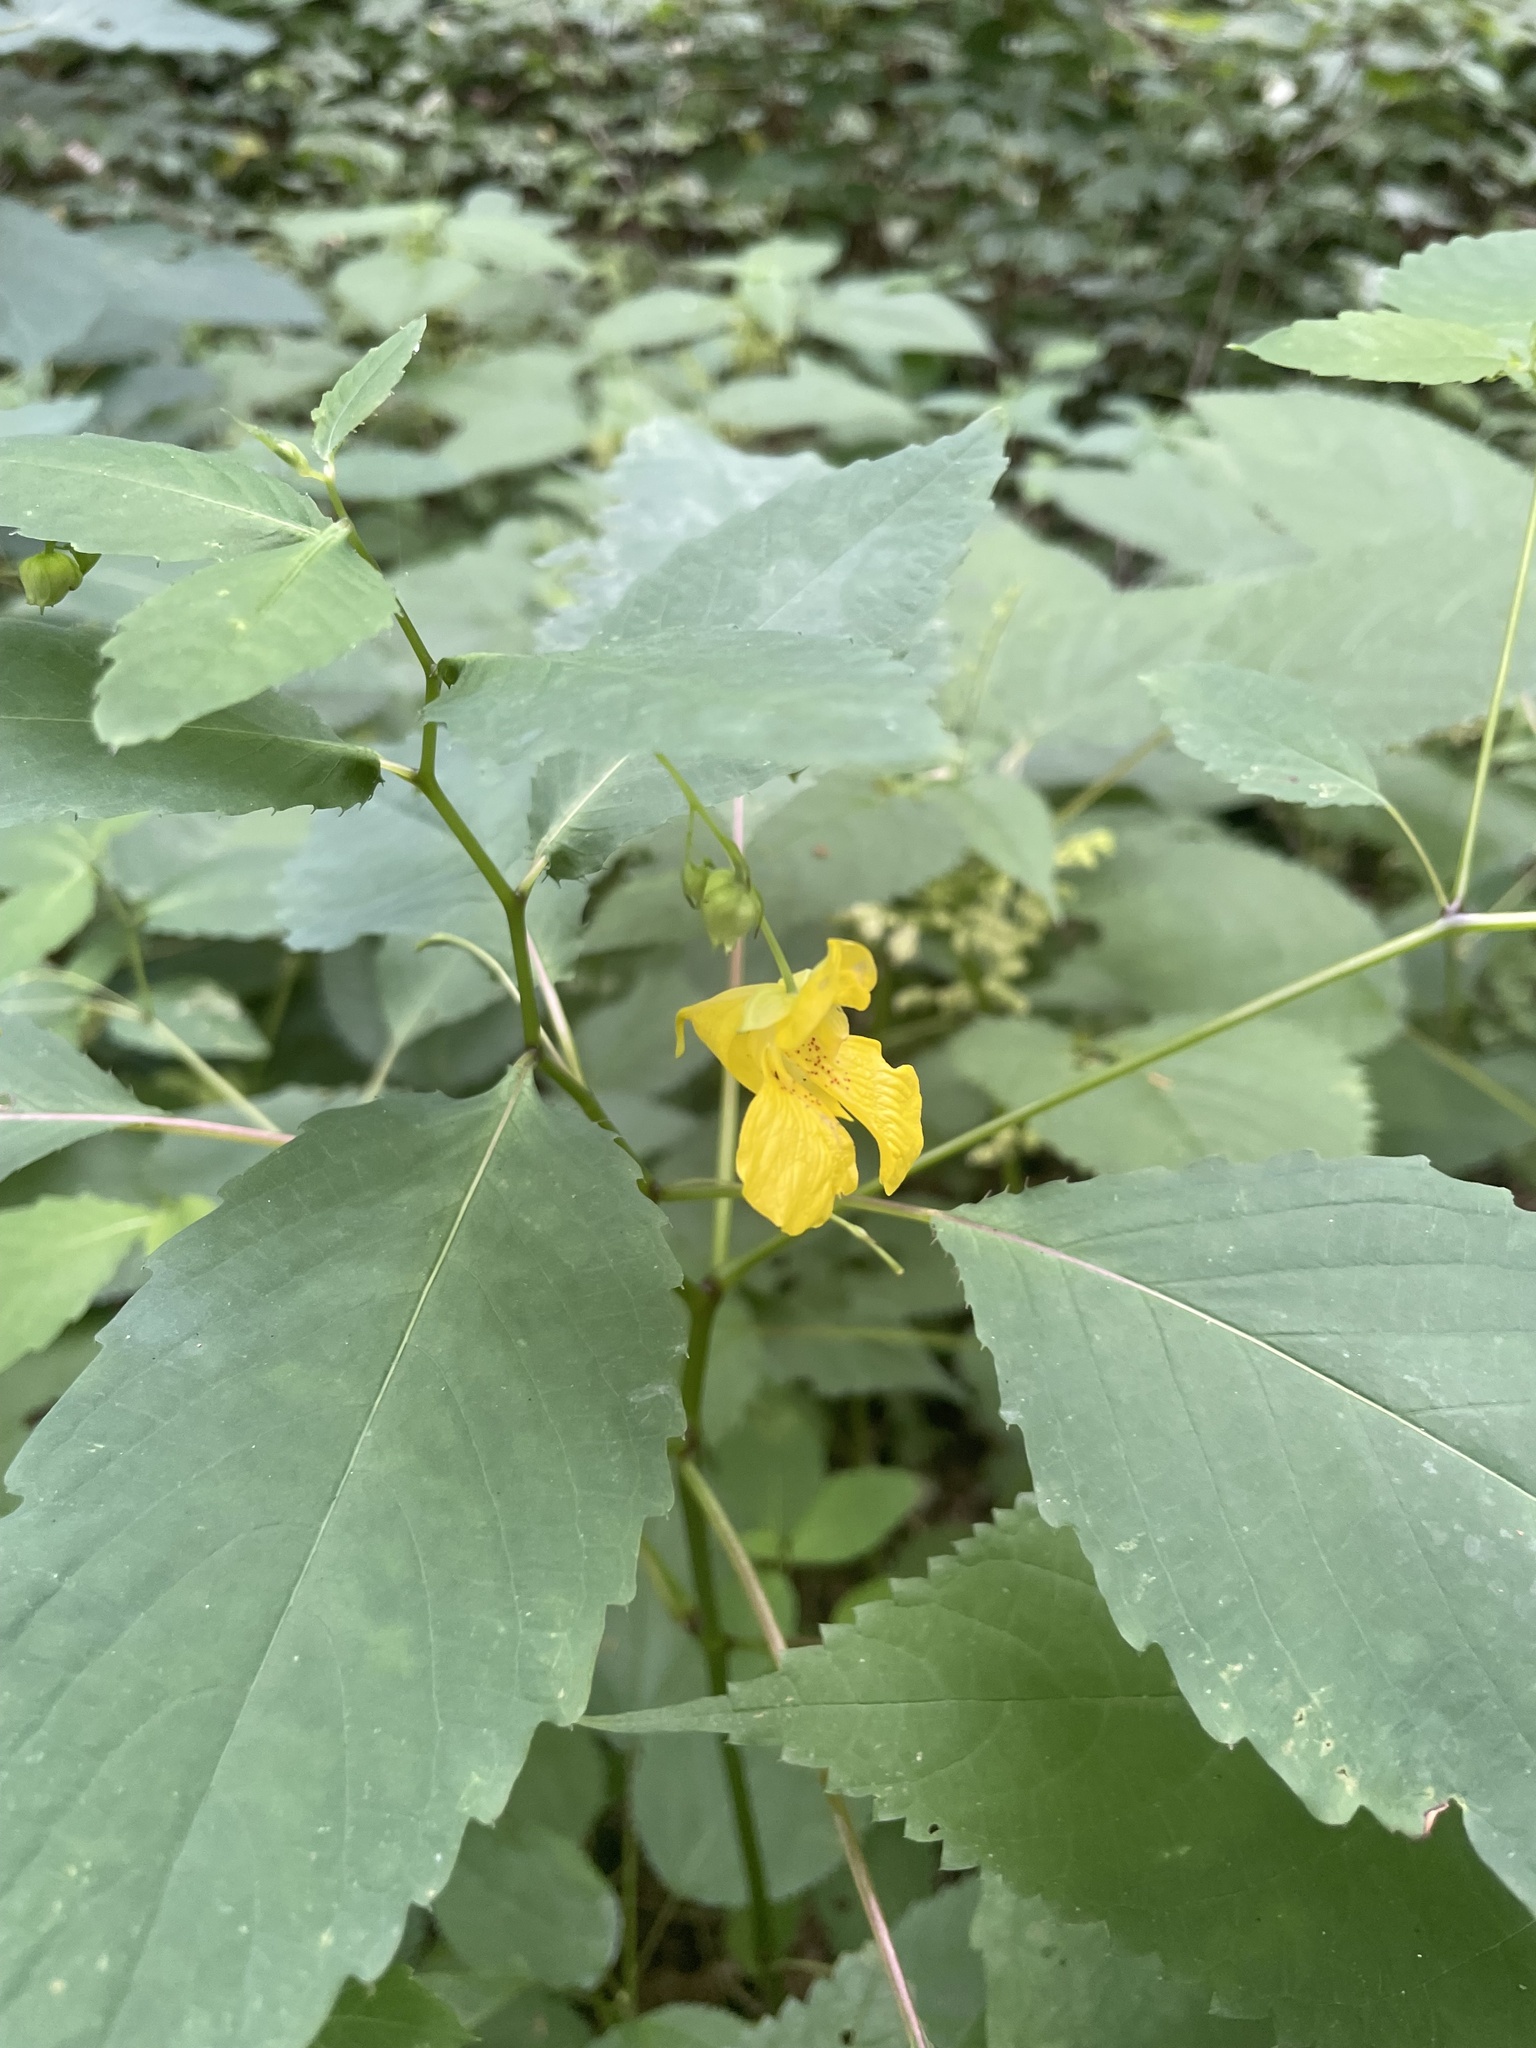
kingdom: Plantae
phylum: Tracheophyta
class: Magnoliopsida
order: Ericales
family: Balsaminaceae
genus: Impatiens
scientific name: Impatiens pallida
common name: Pale snapweed
